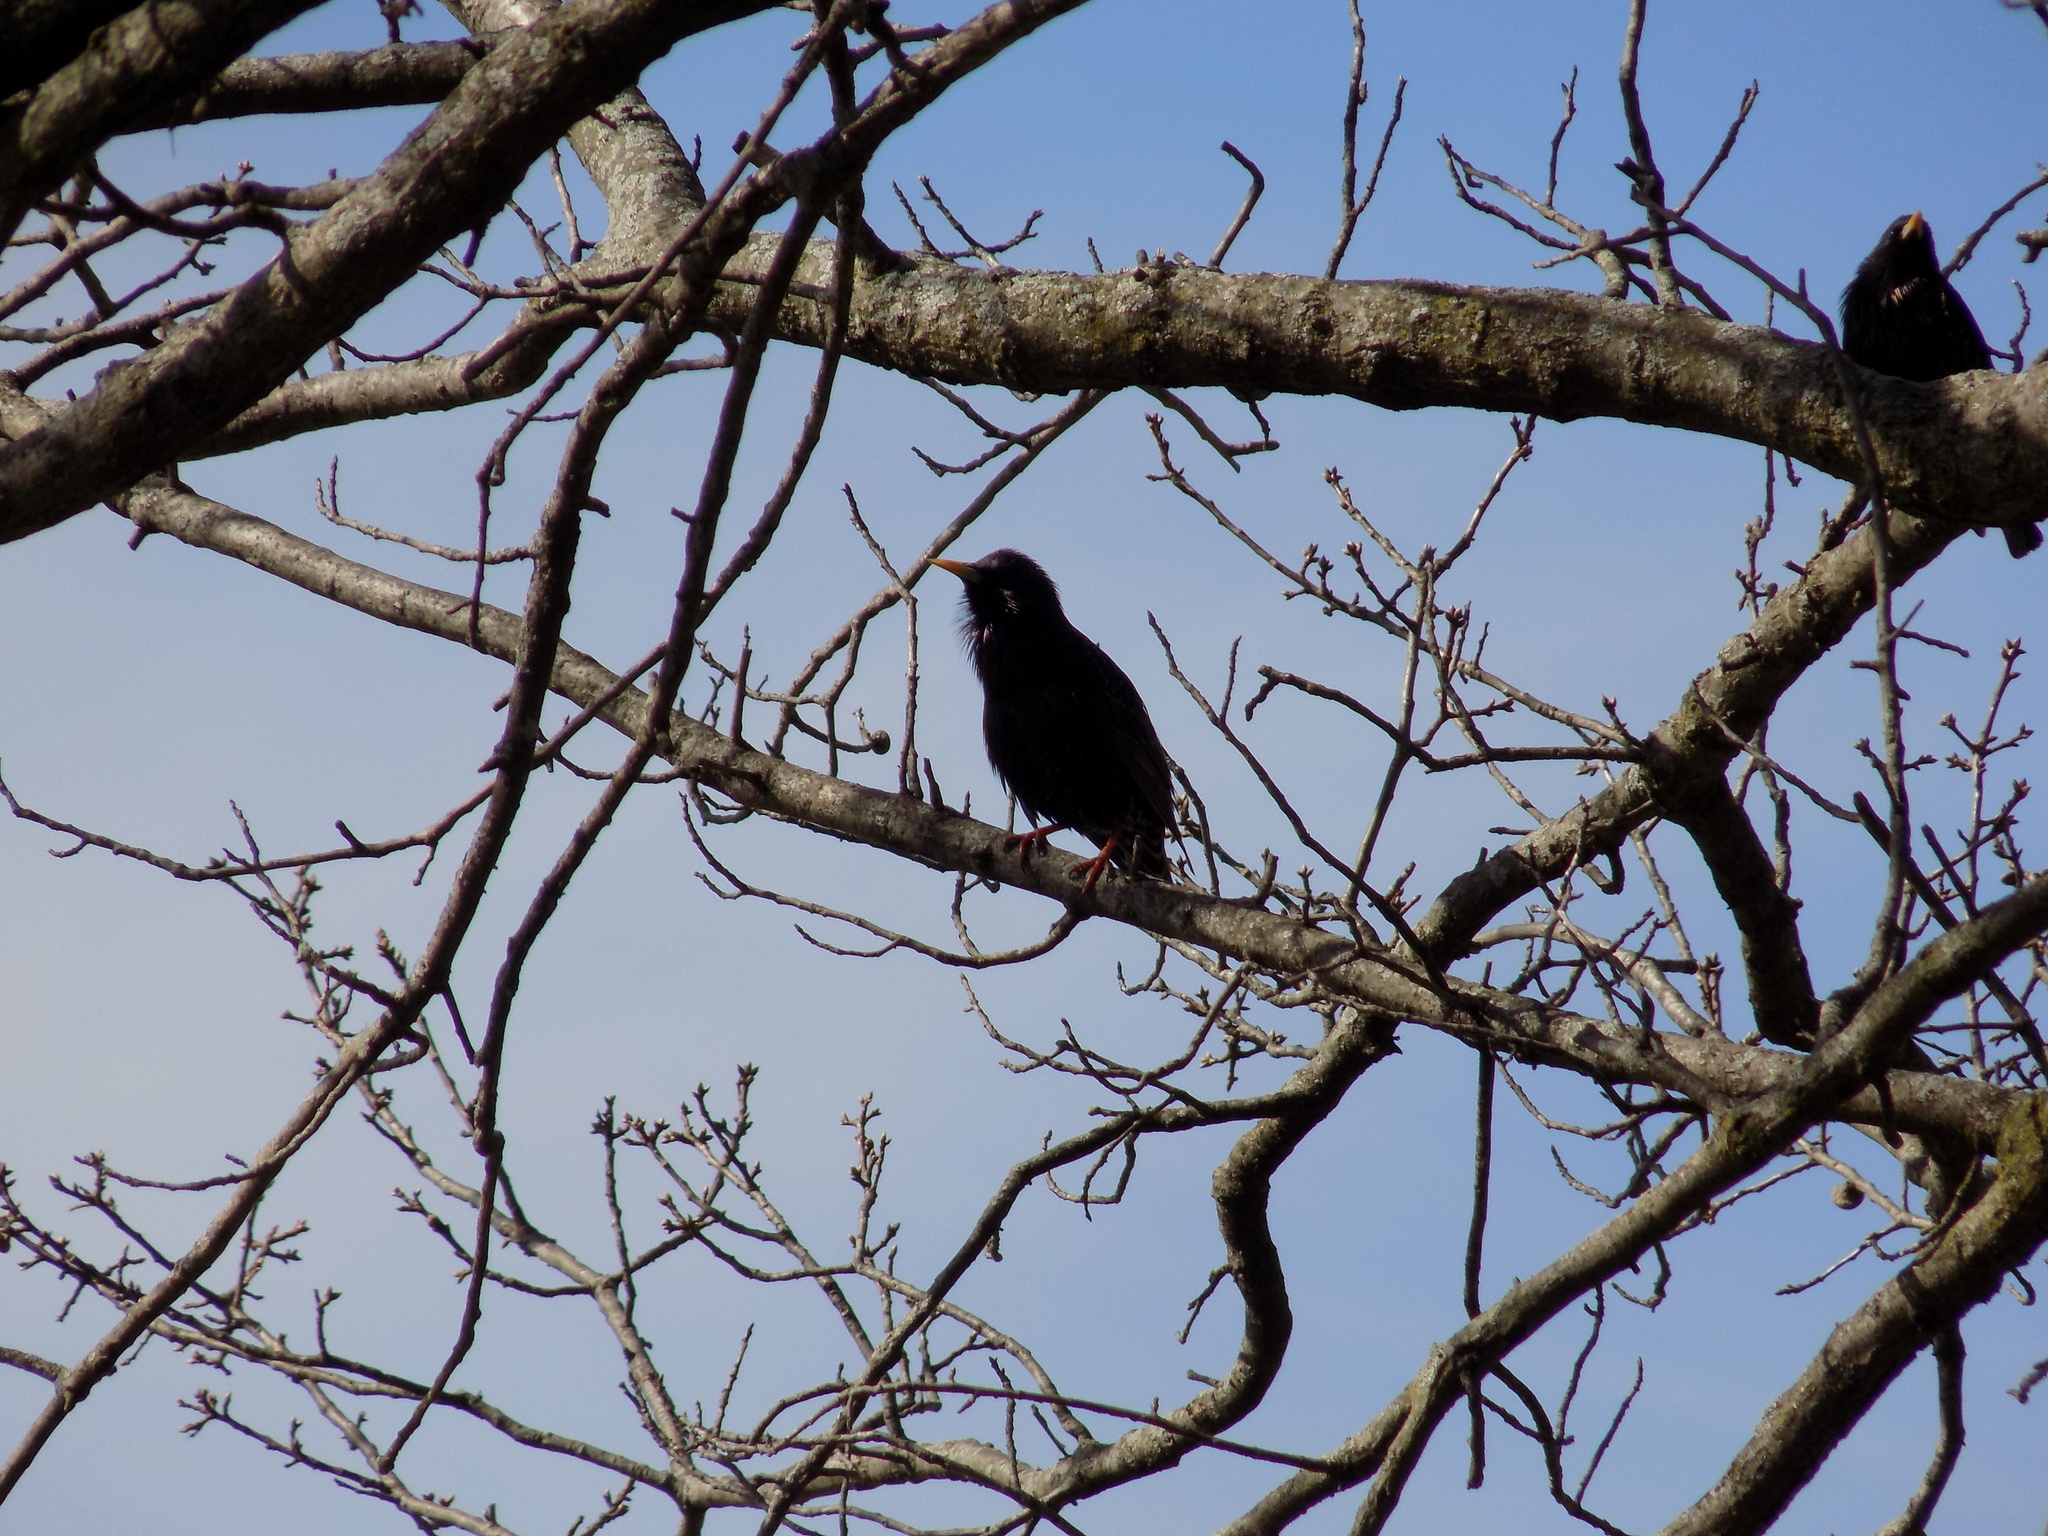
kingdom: Animalia
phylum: Chordata
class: Aves
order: Passeriformes
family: Sturnidae
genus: Sturnus
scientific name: Sturnus vulgaris
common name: Common starling
